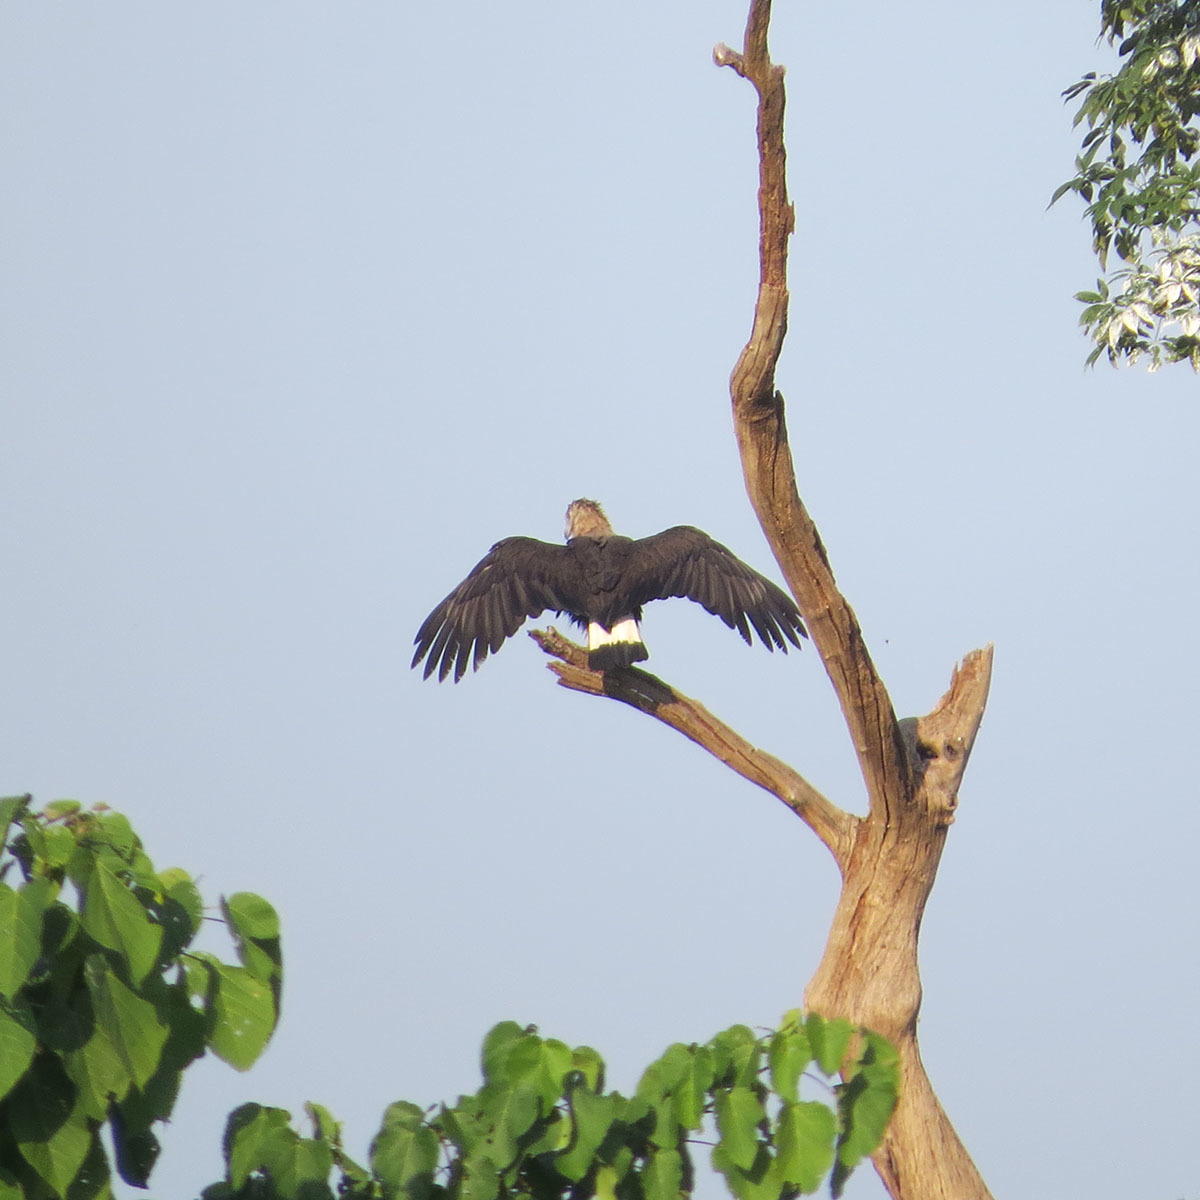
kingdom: Animalia
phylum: Chordata
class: Aves
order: Accipitriformes
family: Accipitridae
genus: Icthyophaga
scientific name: Icthyophaga ichthyaetus
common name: Grey-headed fish eagle
